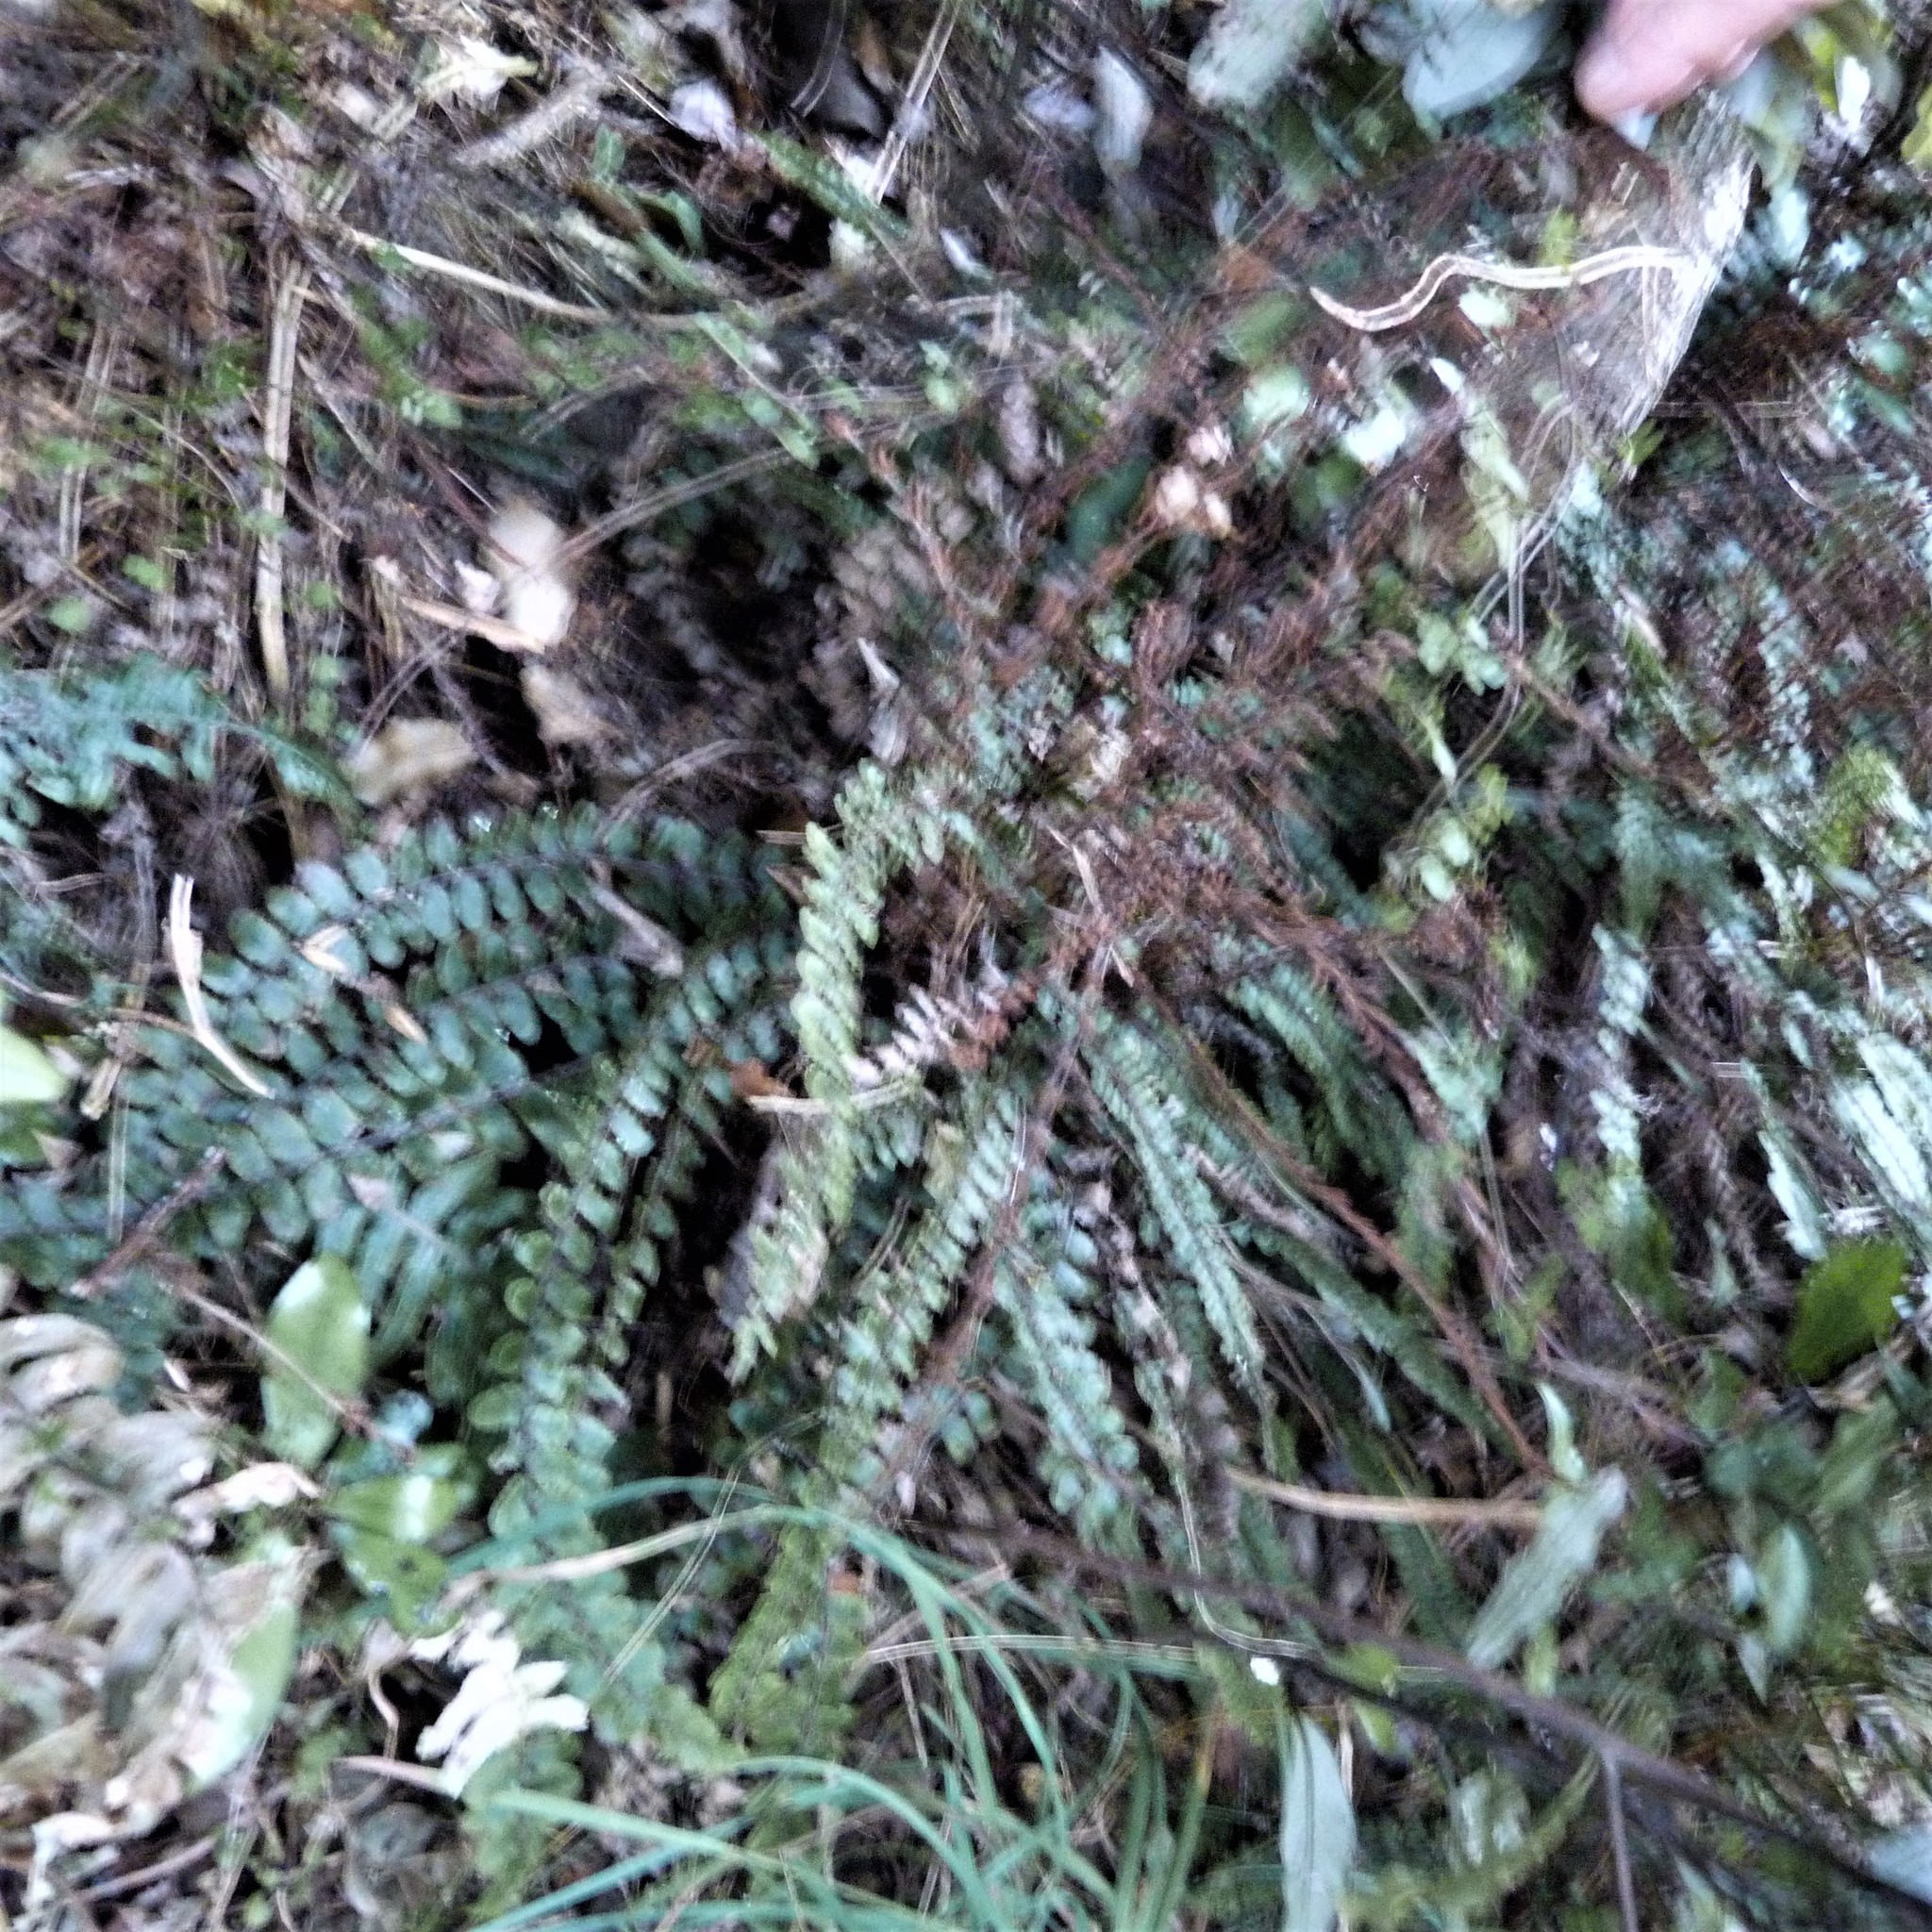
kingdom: Plantae
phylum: Tracheophyta
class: Polypodiopsida
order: Polypodiales
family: Blechnaceae
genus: Cranfillia
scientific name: Cranfillia fluviatilis
